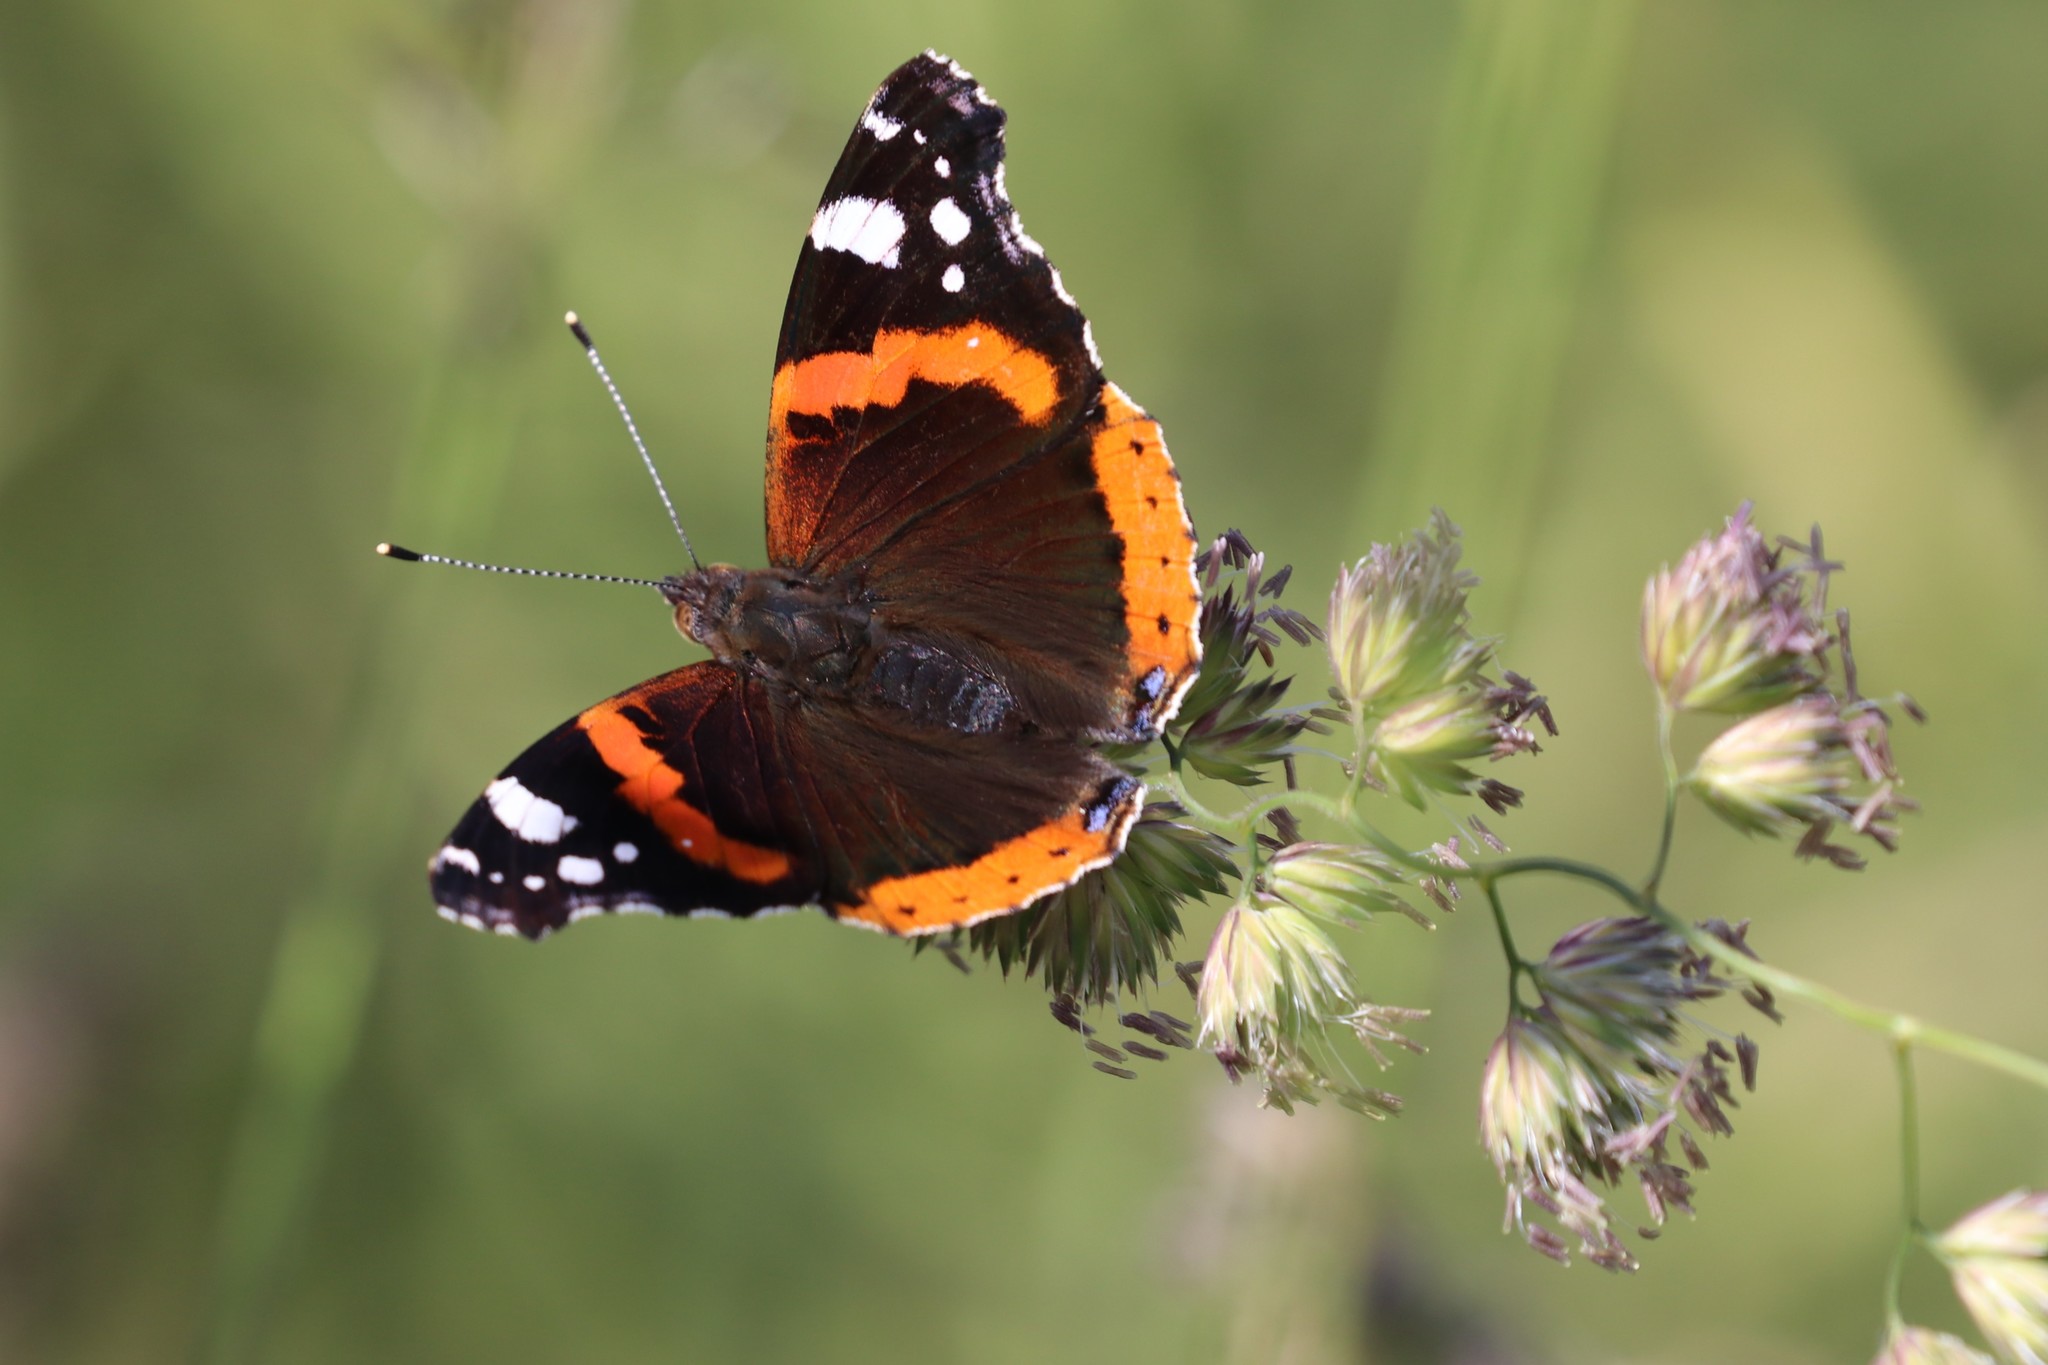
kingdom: Animalia
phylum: Arthropoda
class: Insecta
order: Lepidoptera
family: Nymphalidae
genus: Vanessa
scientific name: Vanessa atalanta
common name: Red admiral
